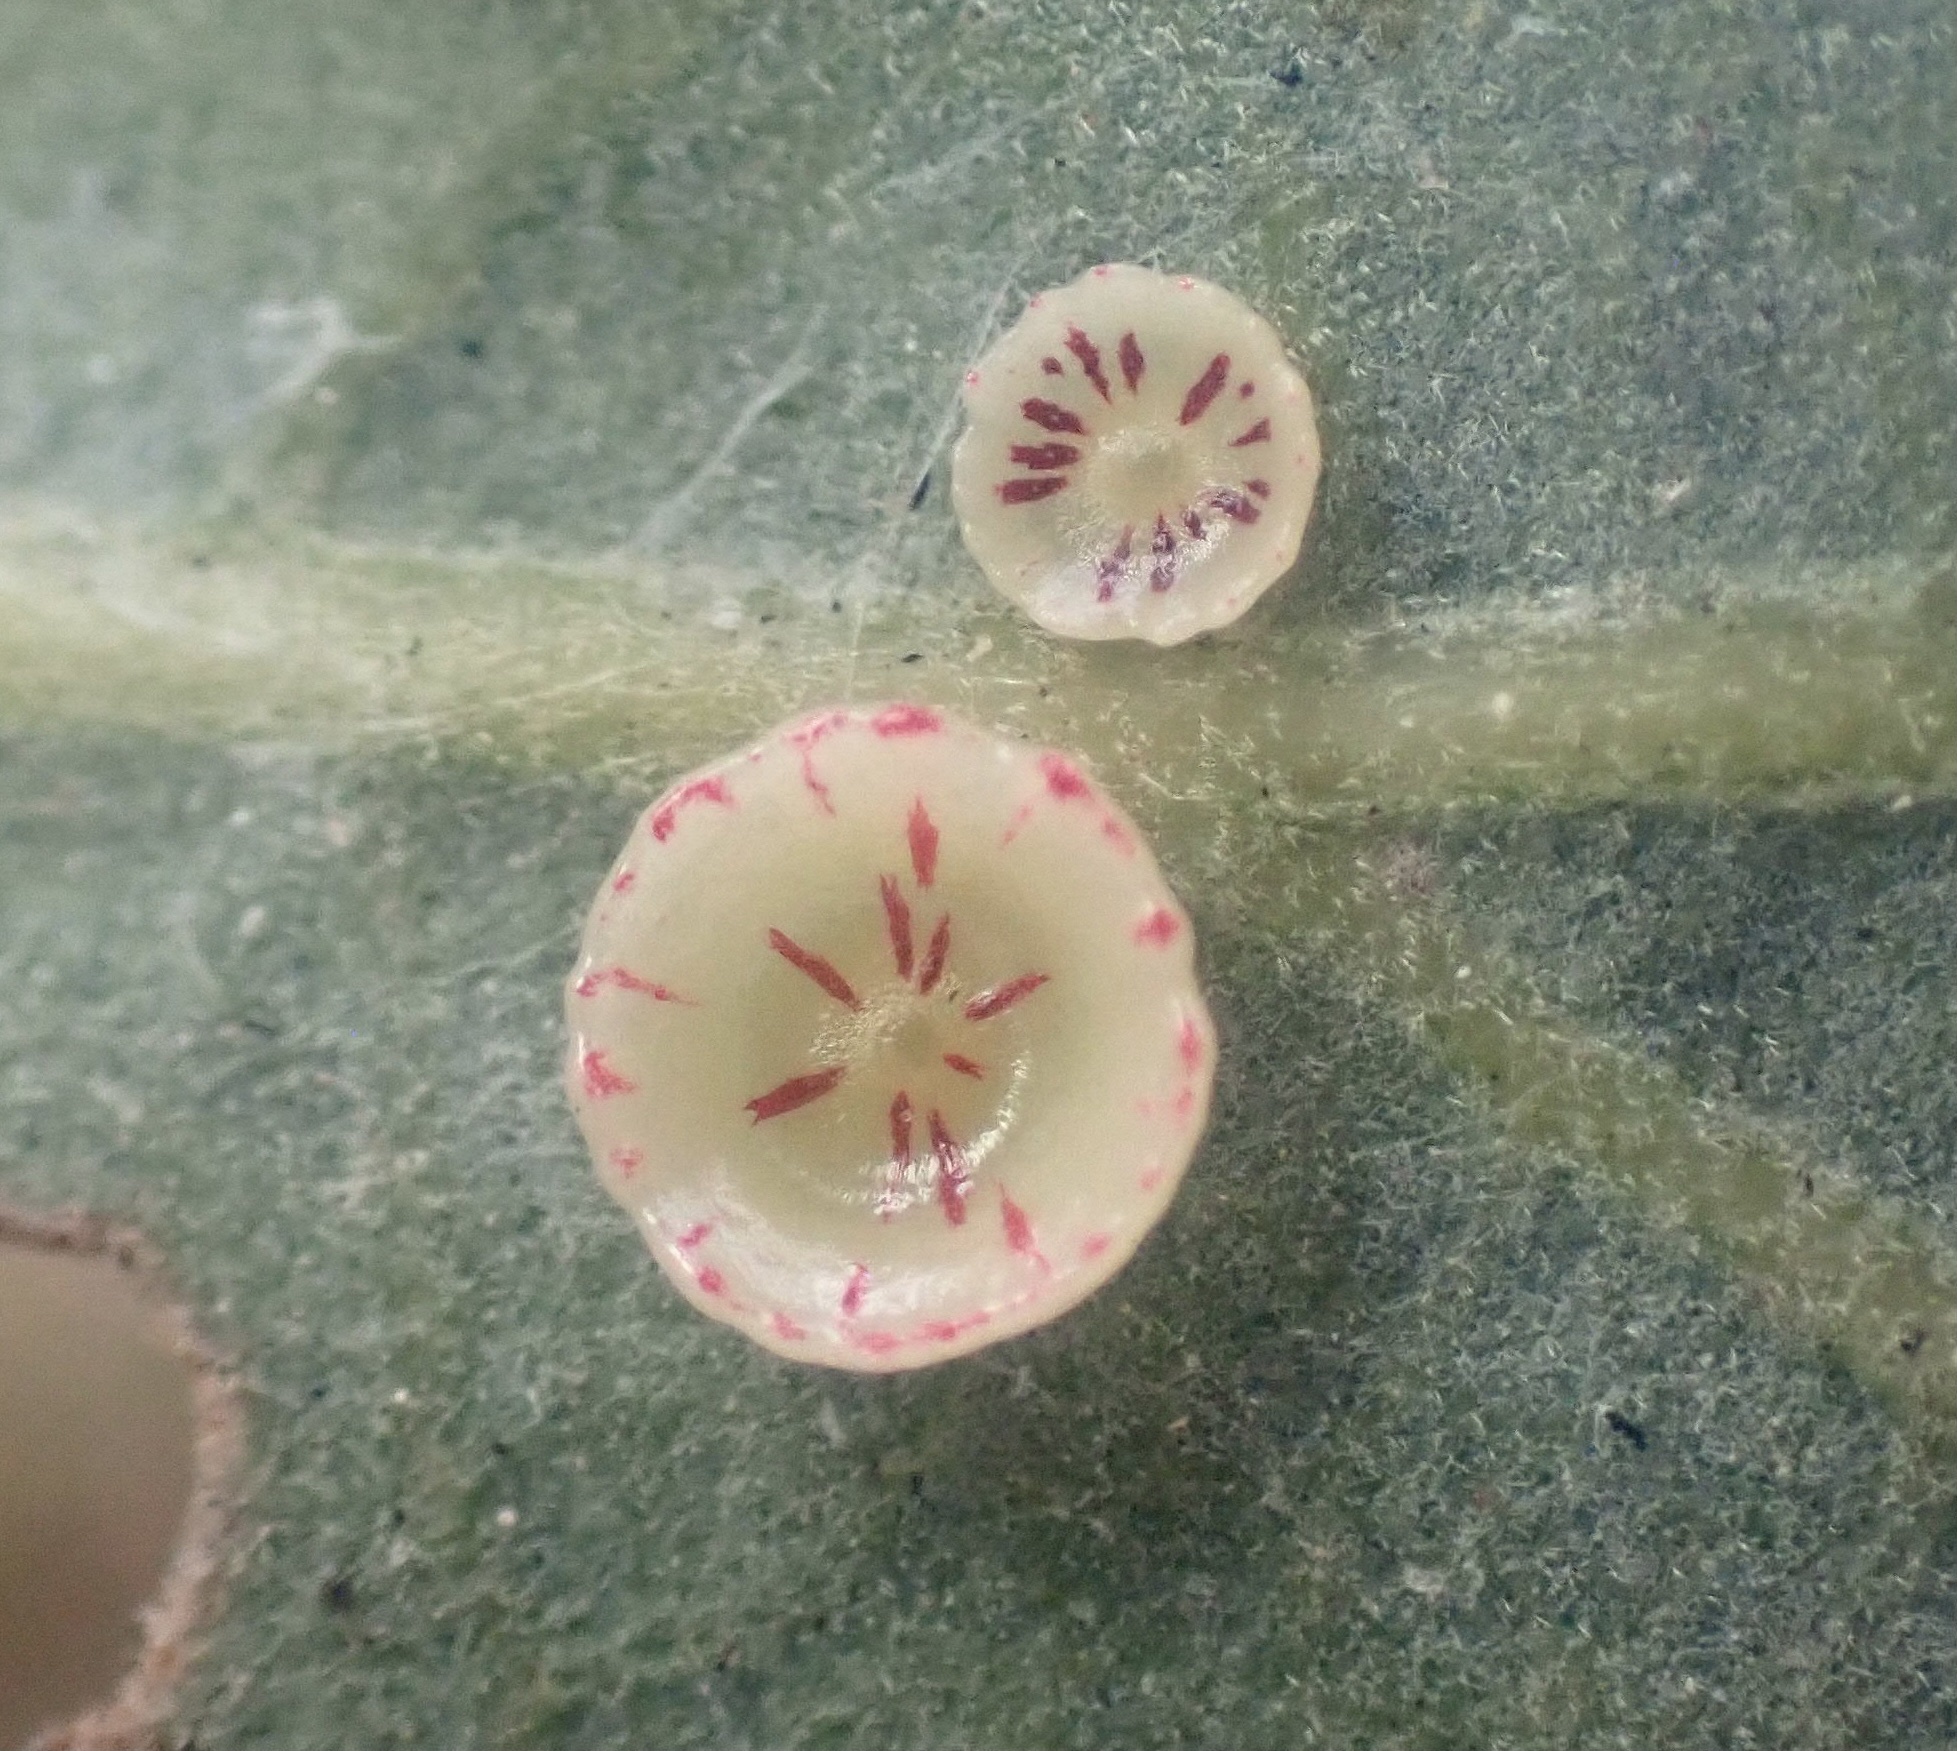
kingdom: Animalia
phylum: Arthropoda
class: Insecta
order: Hymenoptera
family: Cynipidae
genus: Andricus
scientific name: Andricus
